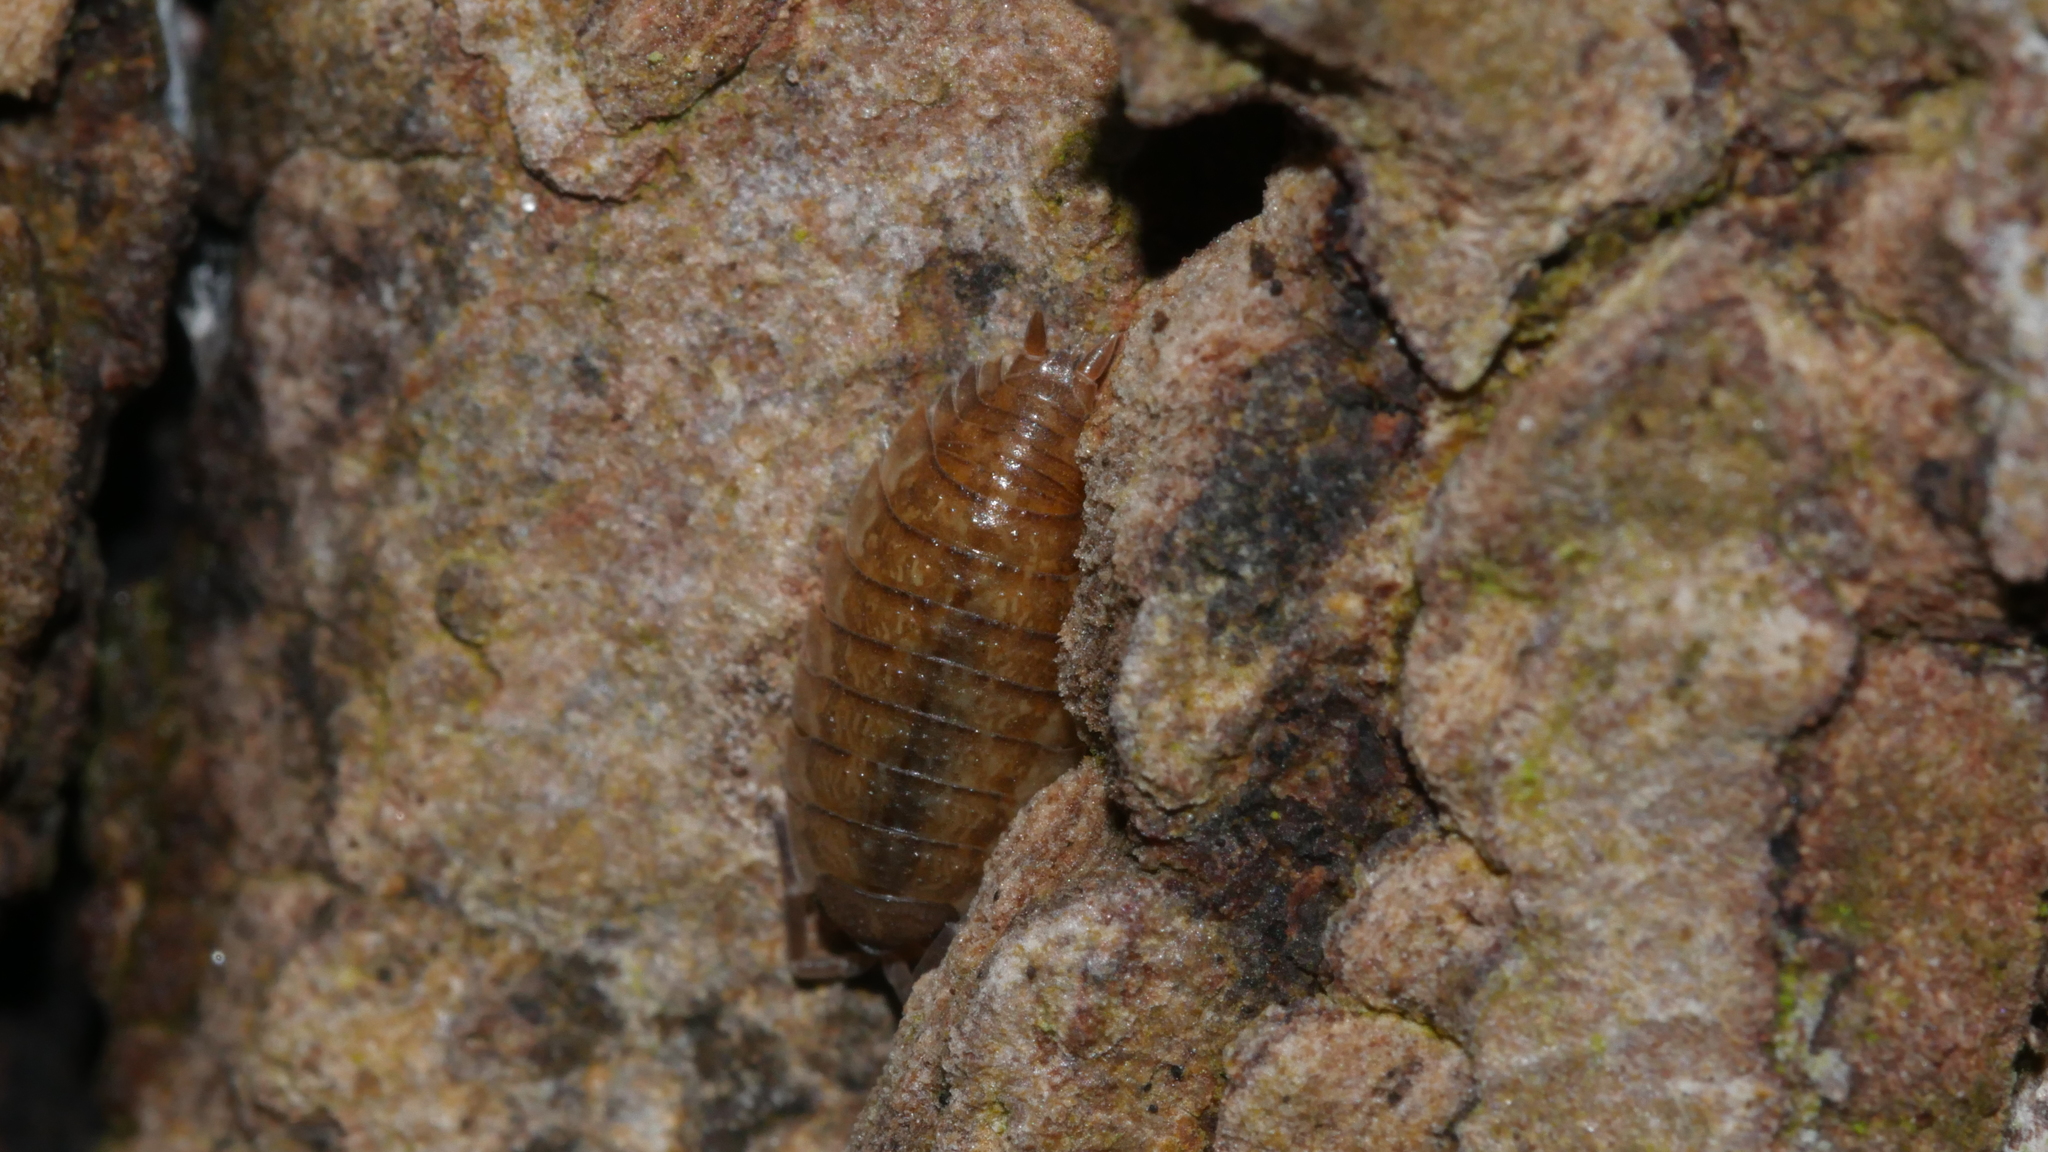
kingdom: Animalia
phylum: Arthropoda
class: Malacostraca
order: Isopoda
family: Porcellionidae
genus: Porcellio
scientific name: Porcellio scaber
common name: Common rough woodlouse
